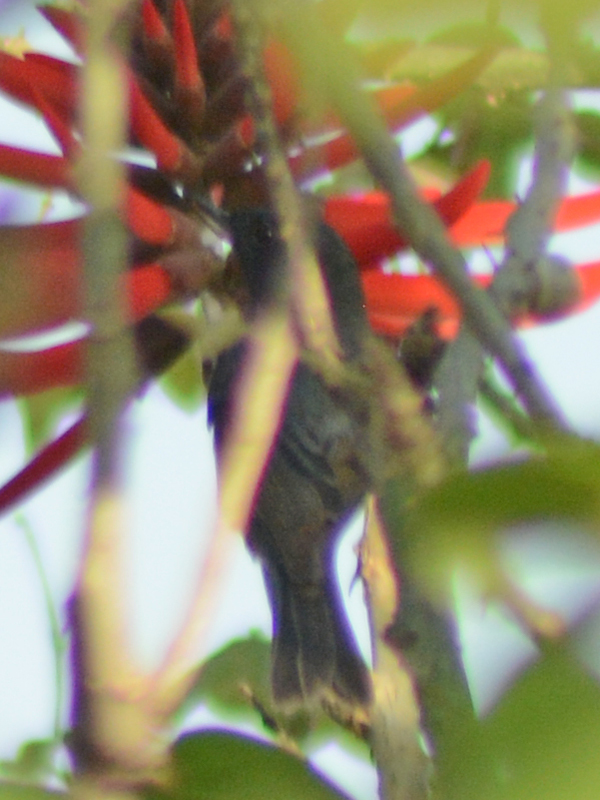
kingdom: Animalia
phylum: Chordata
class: Aves
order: Passeriformes
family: Thraupidae
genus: Diglossa
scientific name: Diglossa baritula
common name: Cinnamon-bellied flowerpiercer
